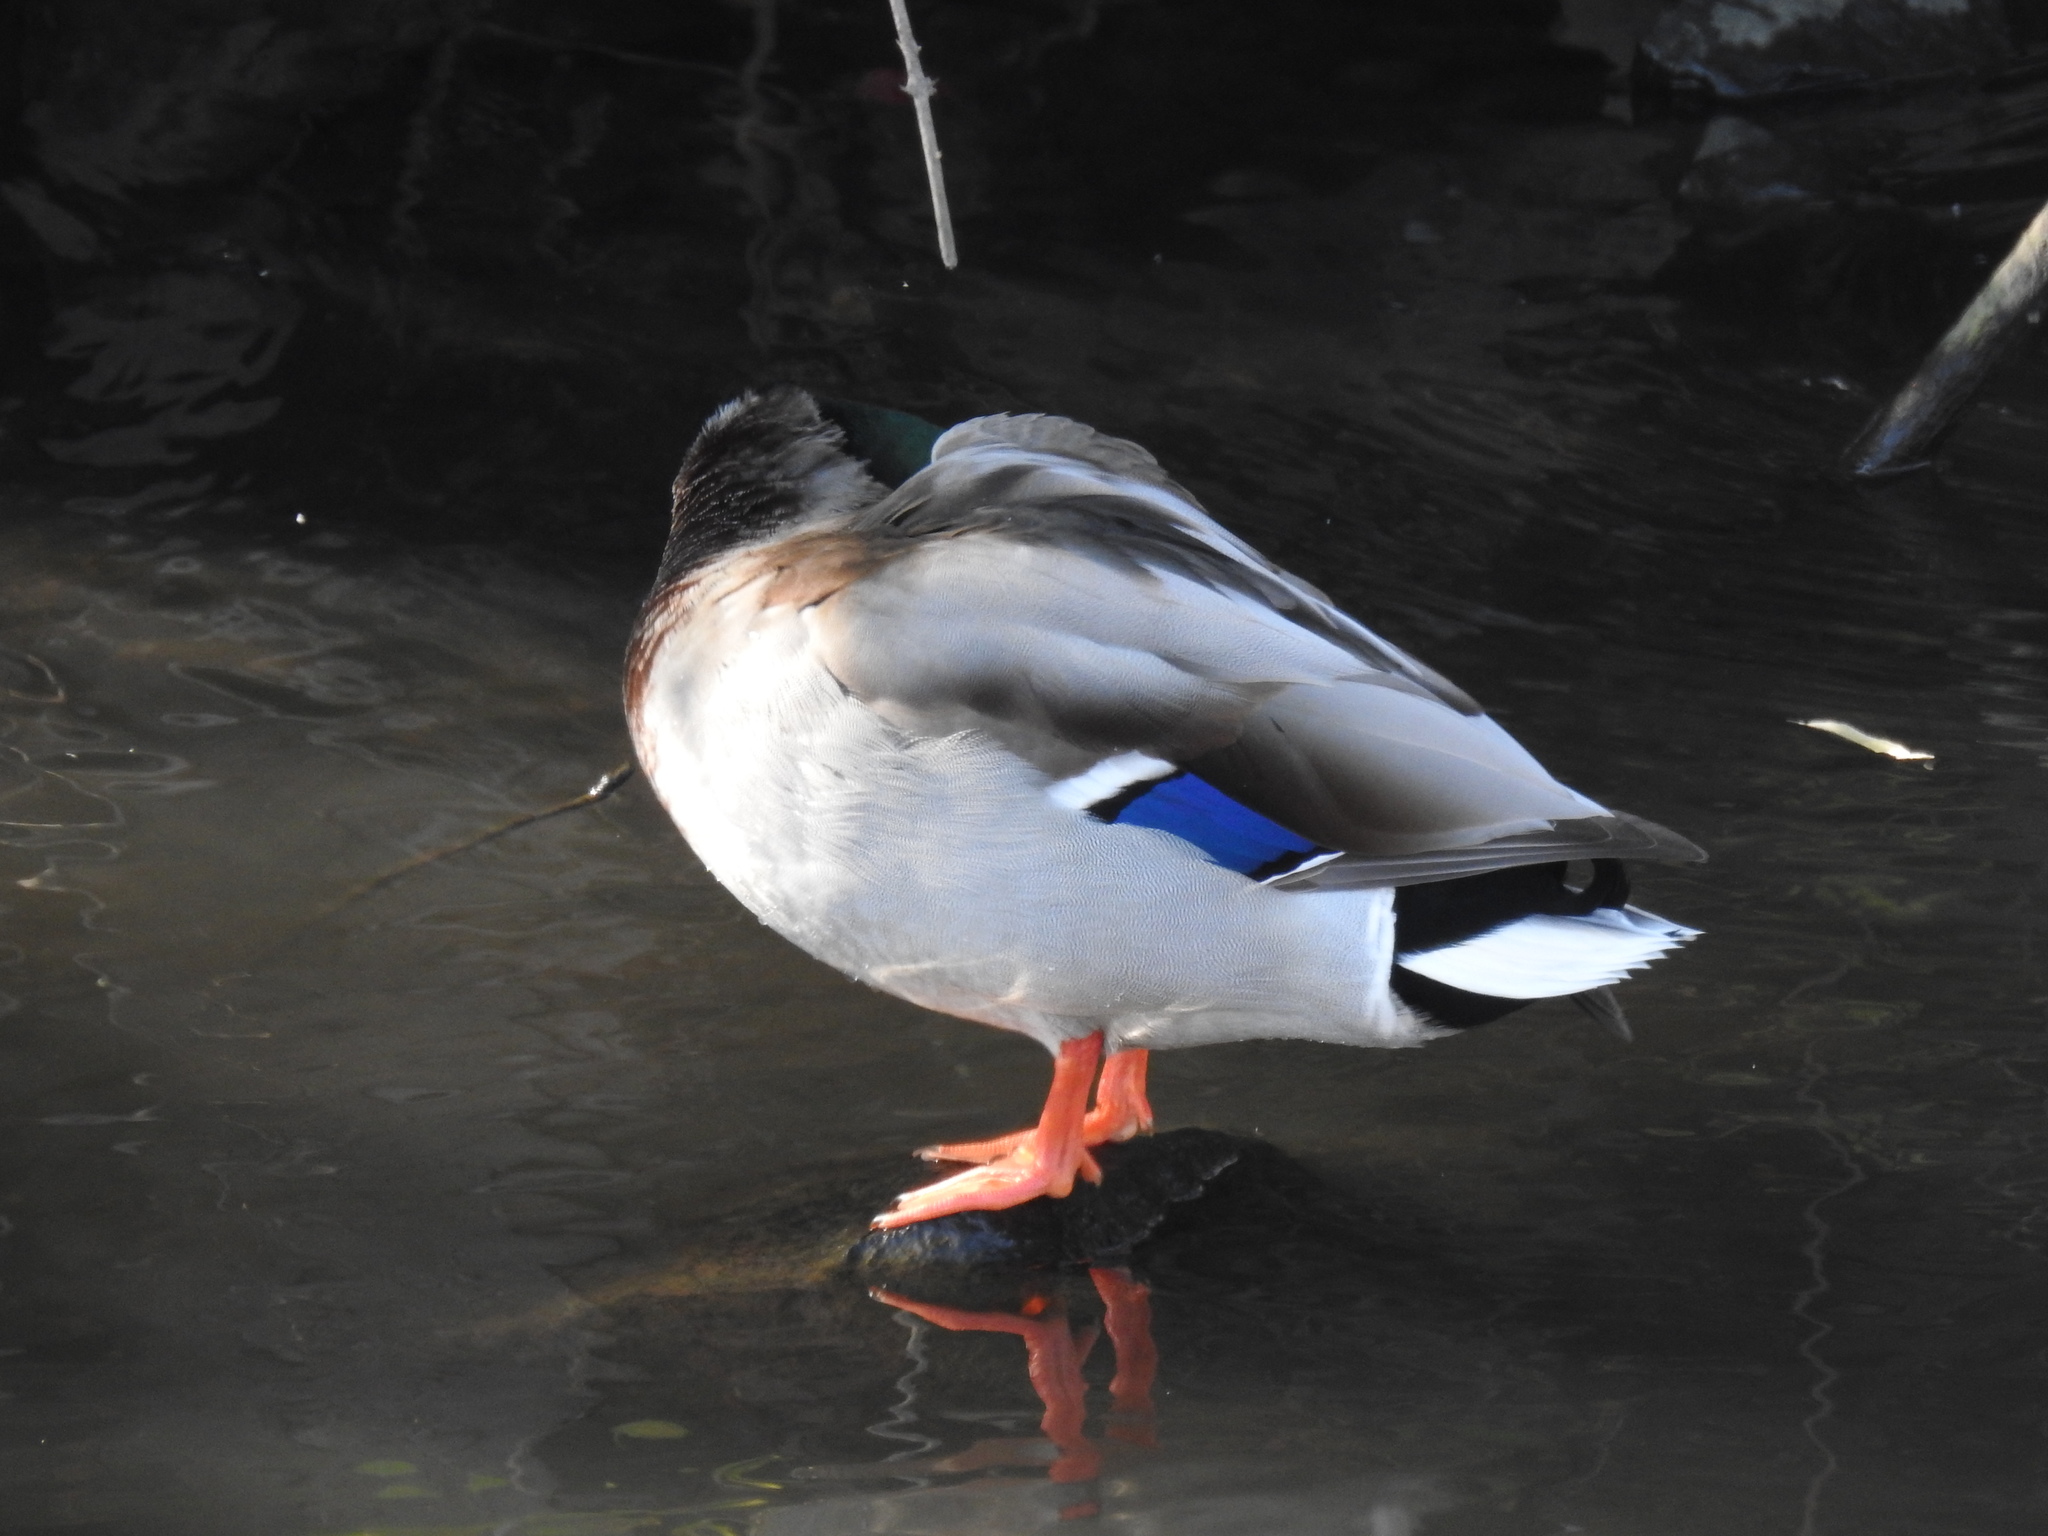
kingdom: Animalia
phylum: Chordata
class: Aves
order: Anseriformes
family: Anatidae
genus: Anas
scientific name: Anas platyrhynchos
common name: Mallard
